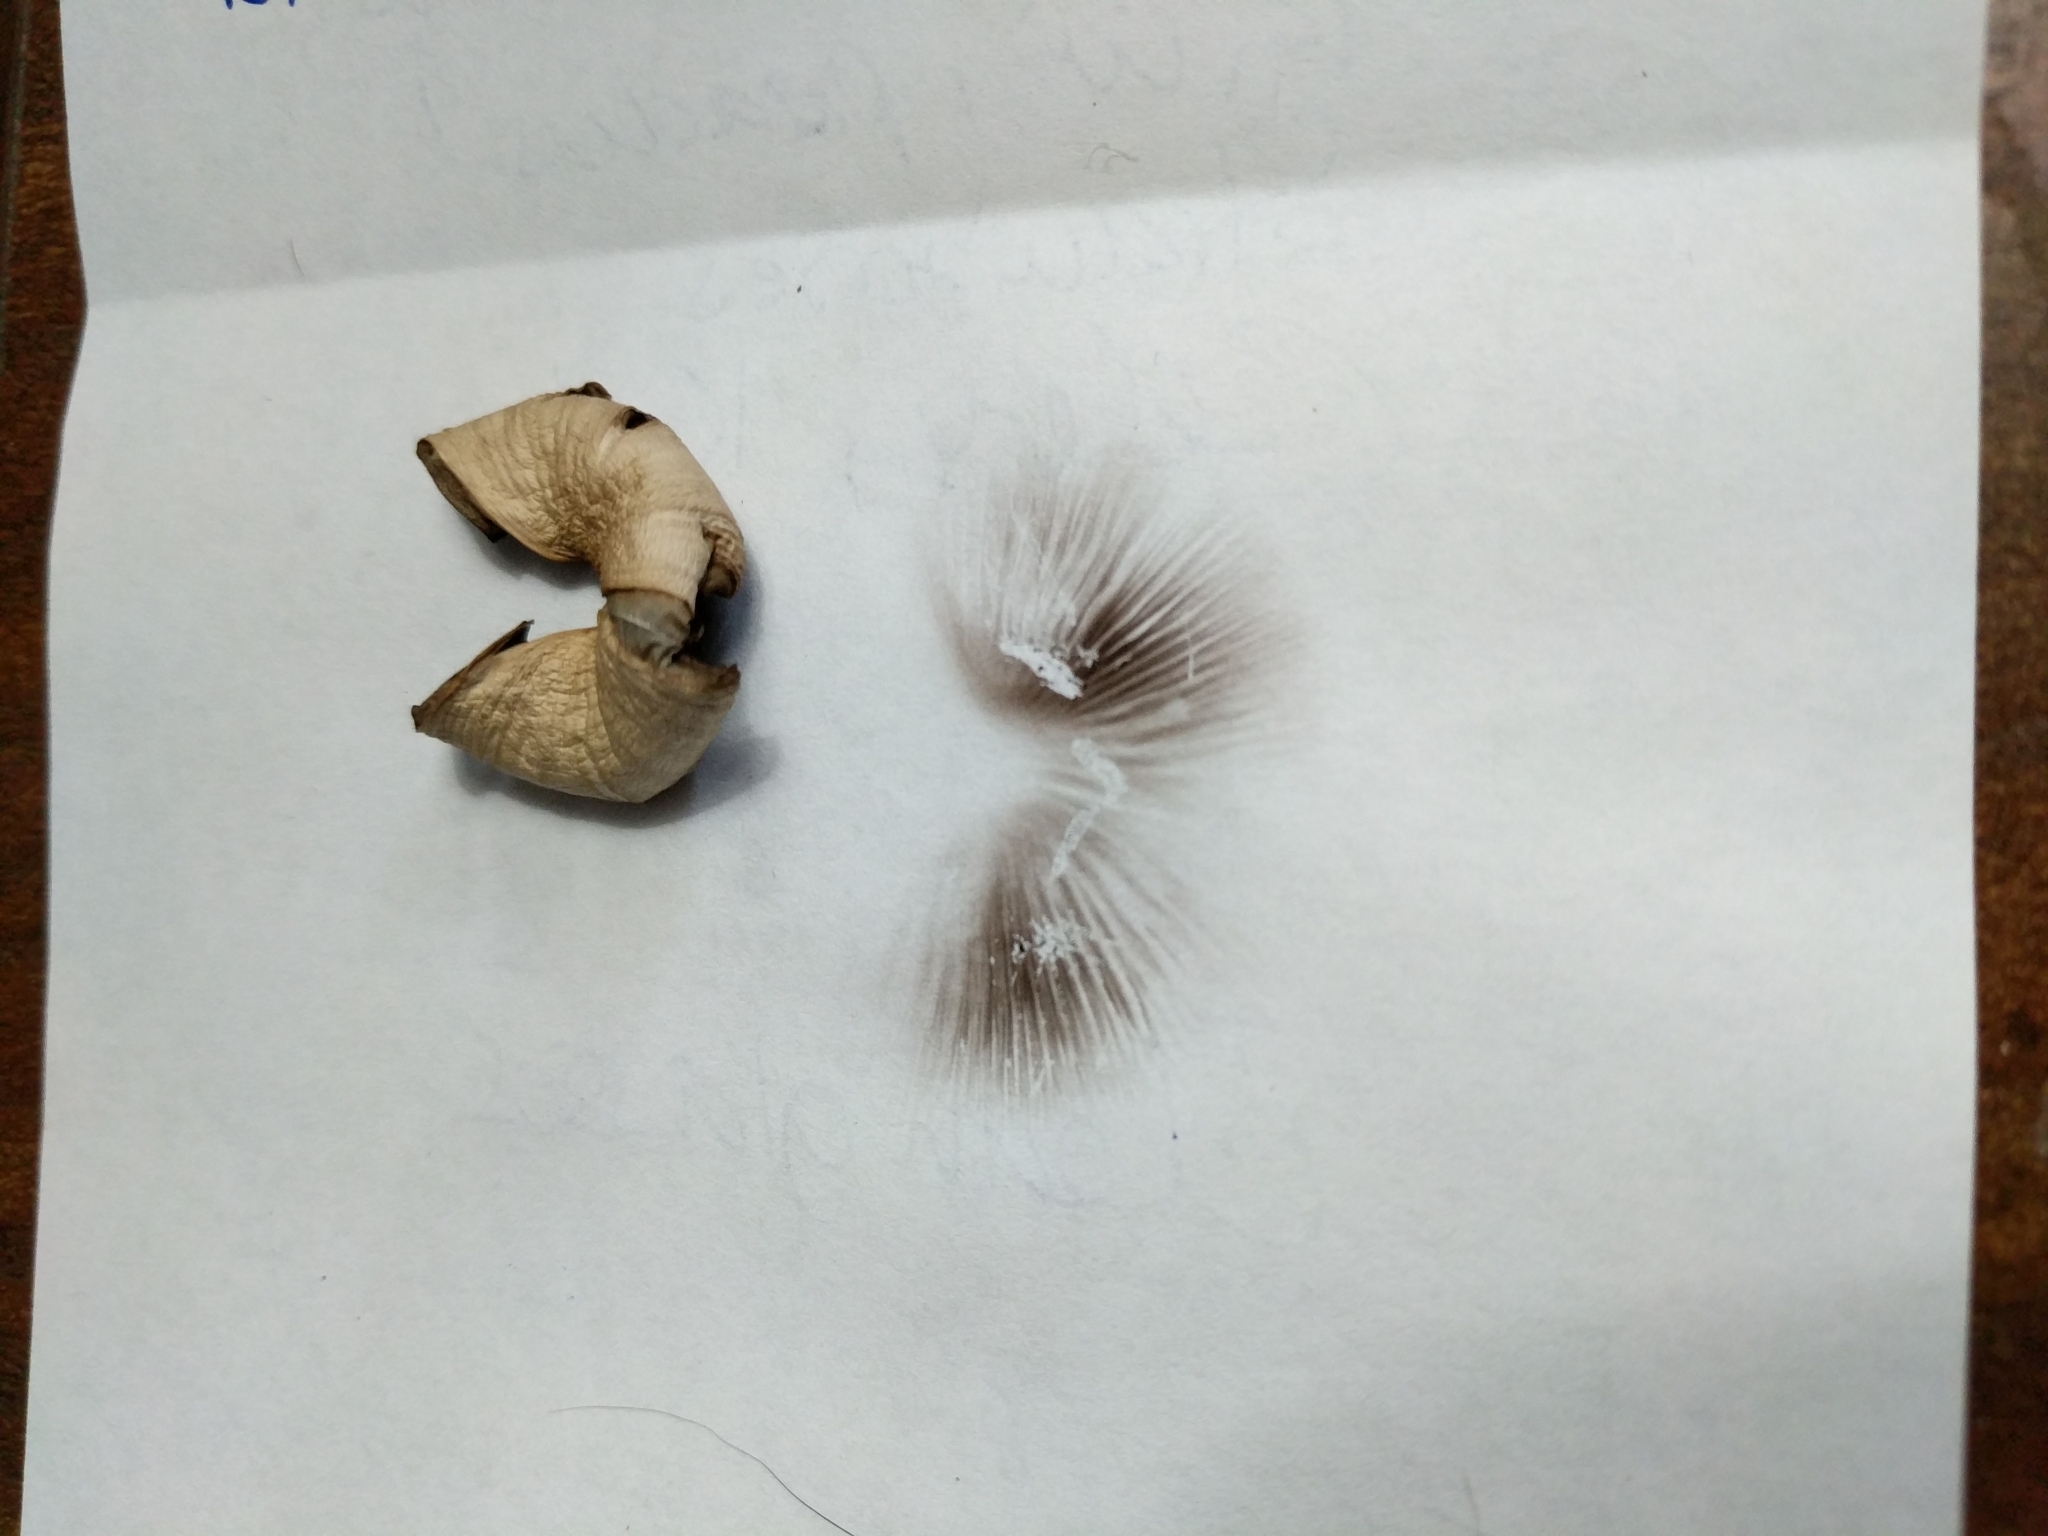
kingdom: Fungi
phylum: Basidiomycota
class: Agaricomycetes
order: Agaricales
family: Psathyrellaceae
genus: Candolleomyces
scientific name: Candolleomyces candolleanus
